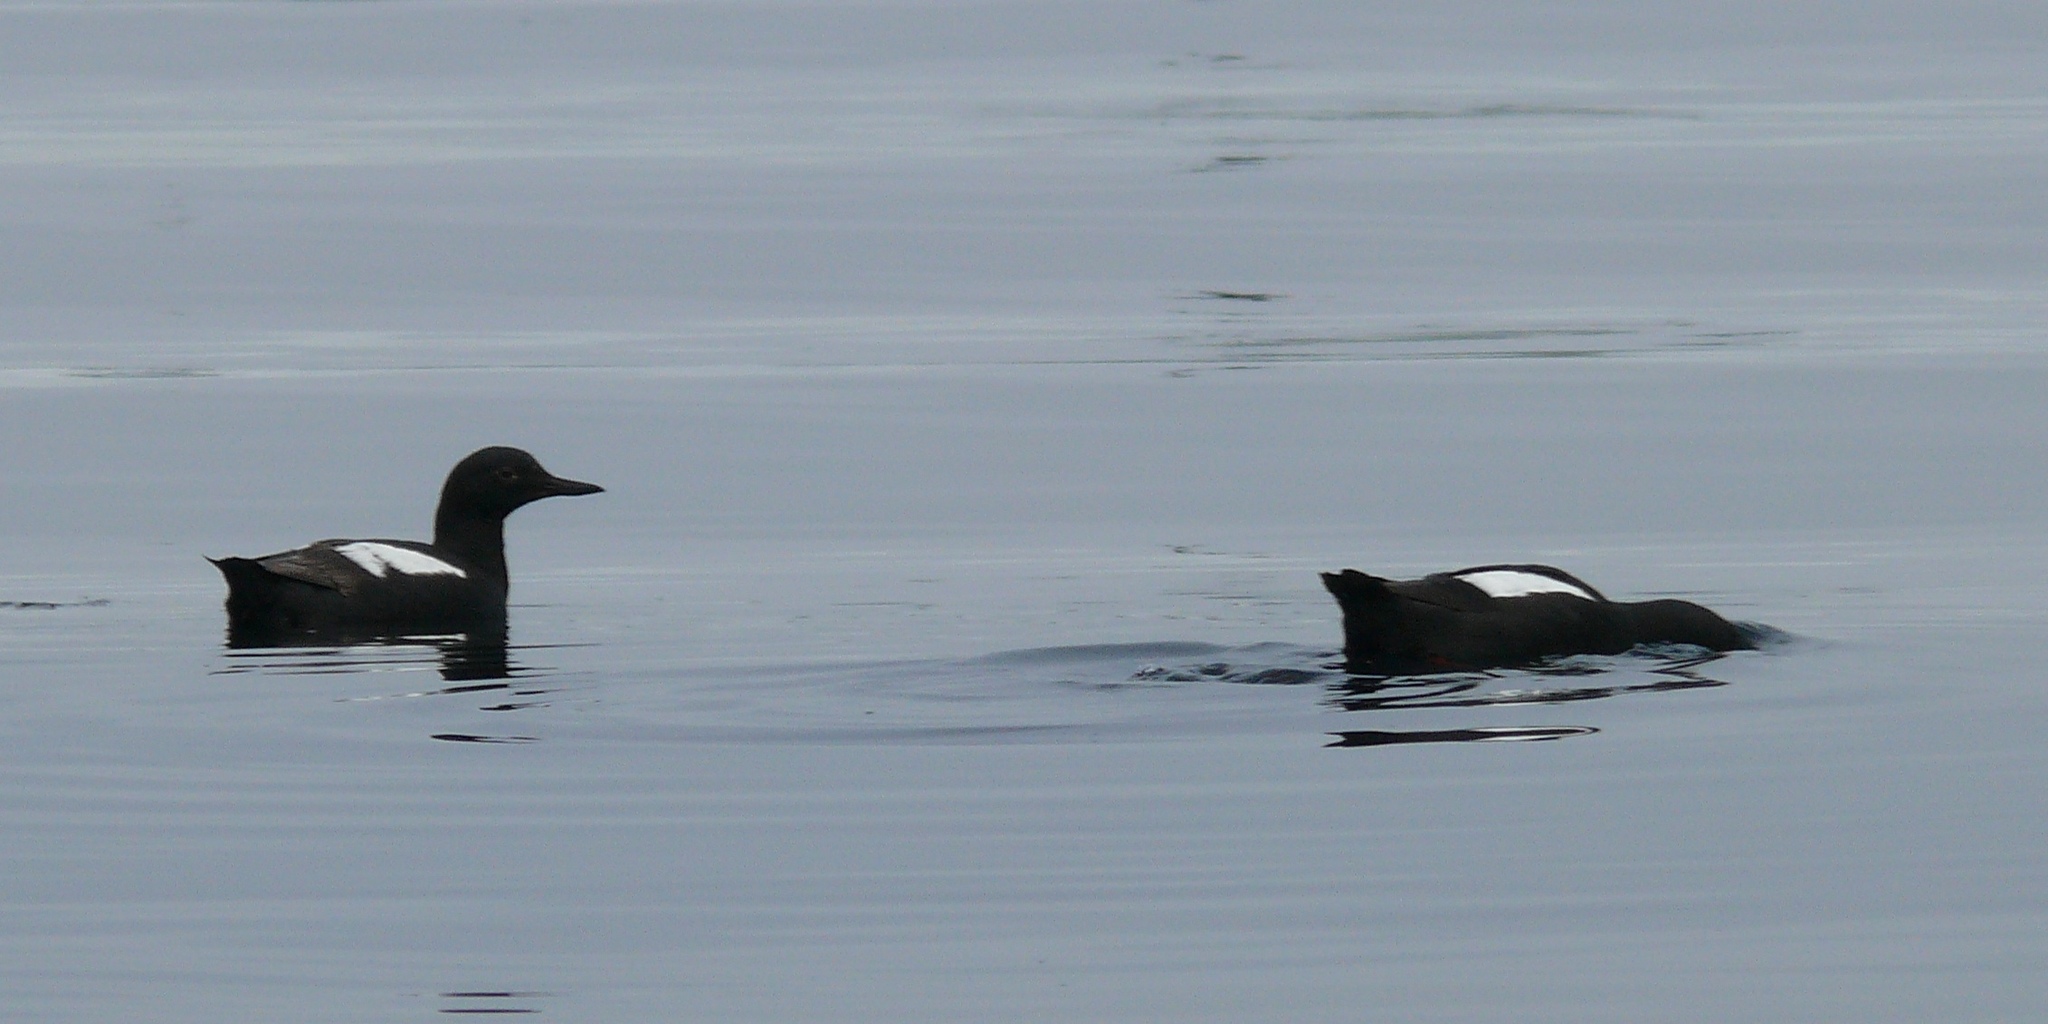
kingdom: Animalia
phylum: Chordata
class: Aves
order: Charadriiformes
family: Alcidae
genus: Cepphus
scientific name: Cepphus columba
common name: Pigeon guillemot
